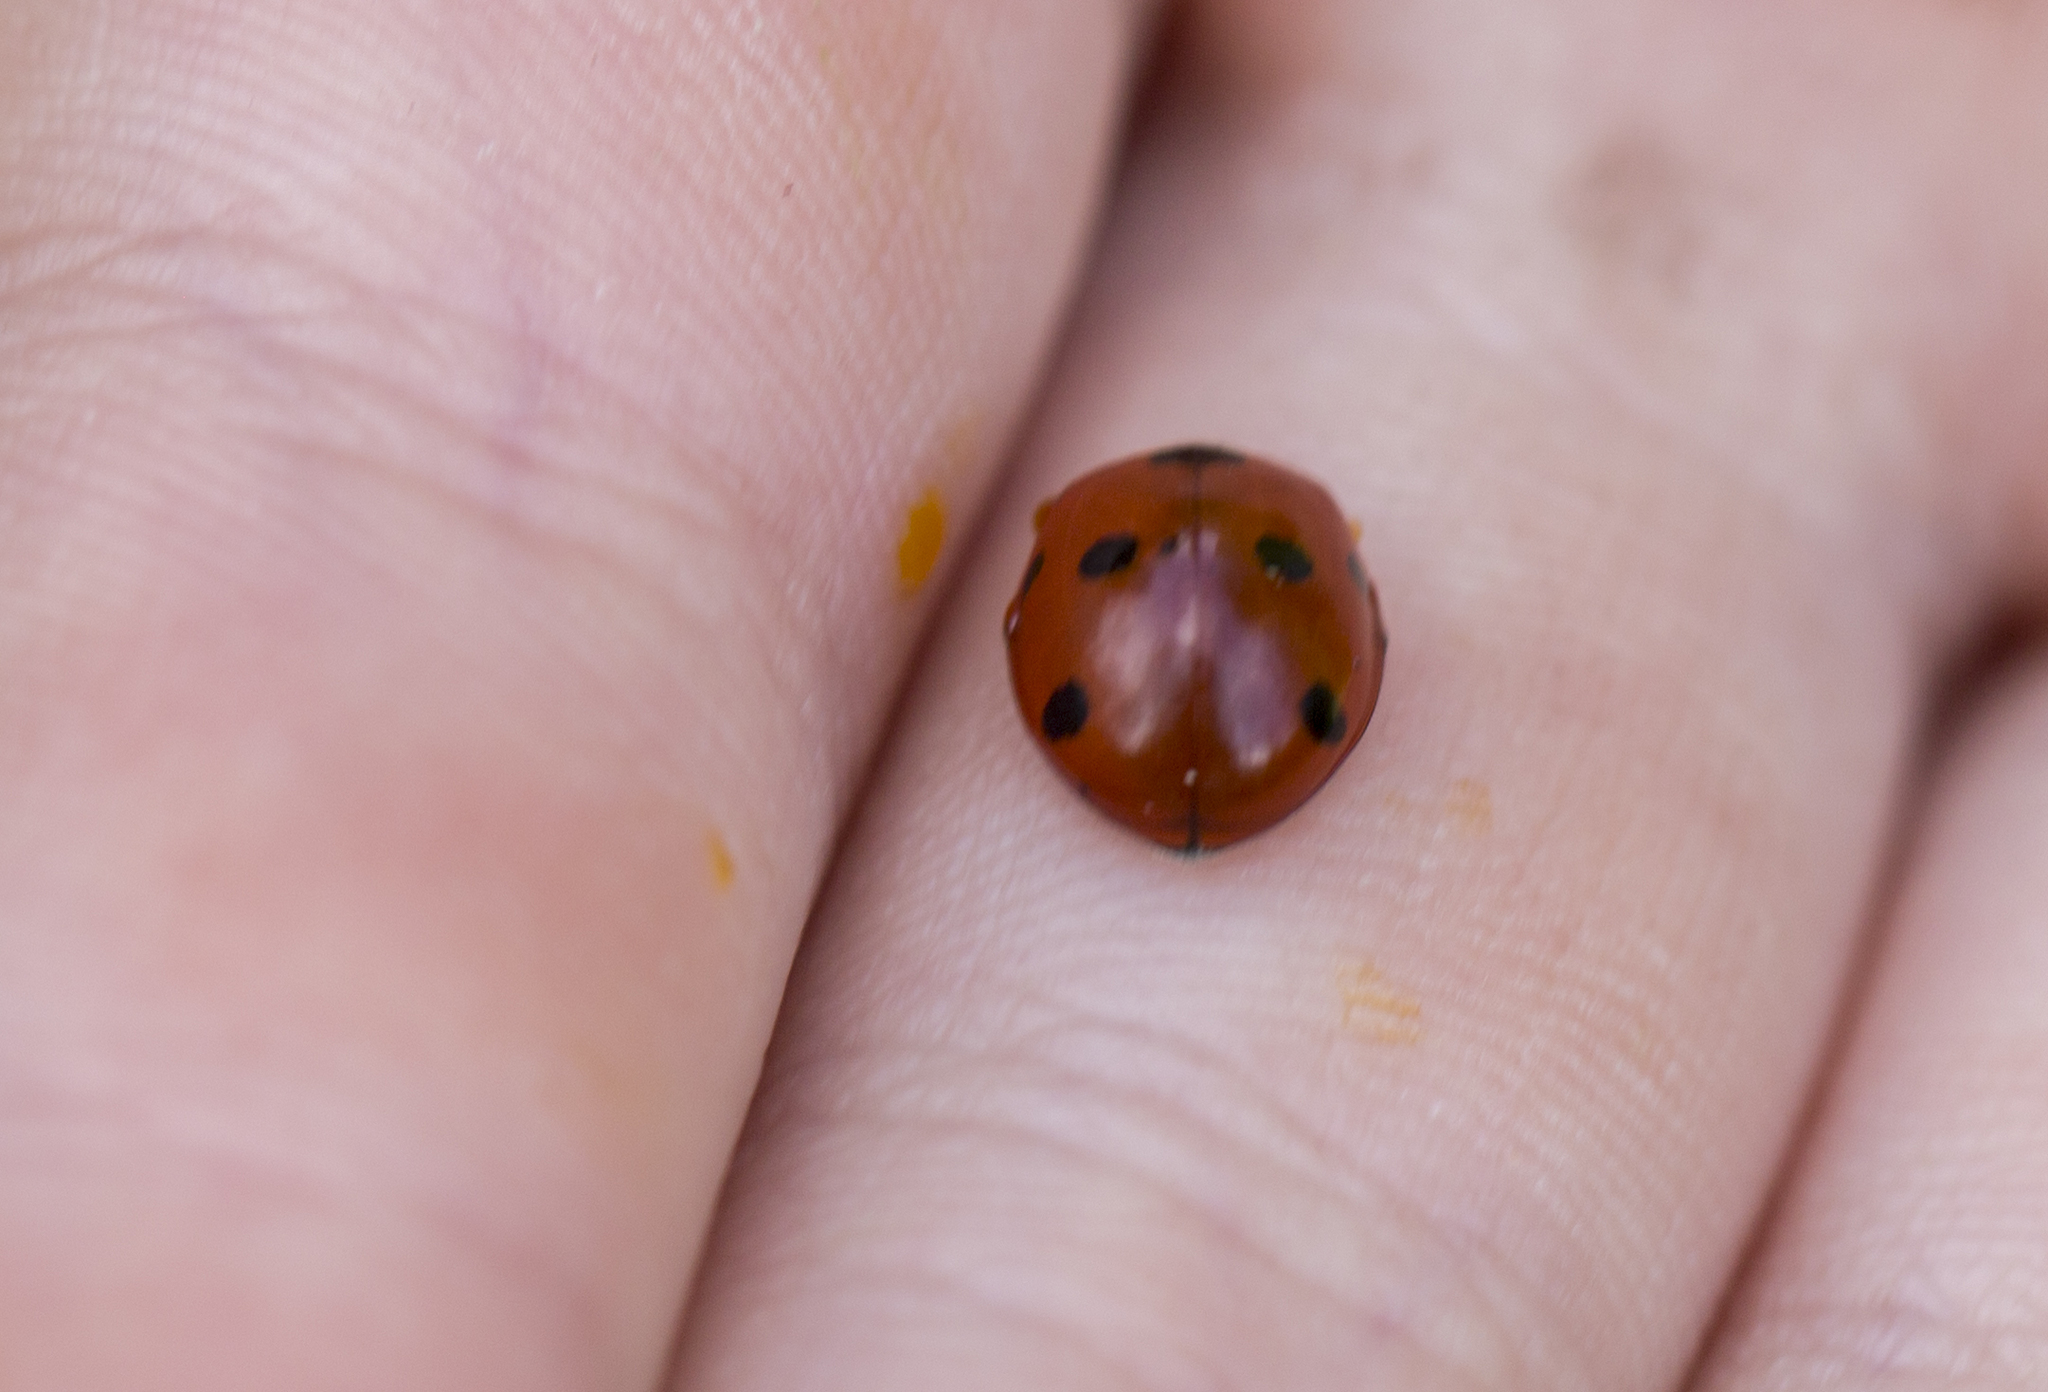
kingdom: Animalia
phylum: Arthropoda
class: Insecta
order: Coleoptera
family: Coccinellidae
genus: Coccinella
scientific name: Coccinella septempunctata
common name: Sevenspotted lady beetle
